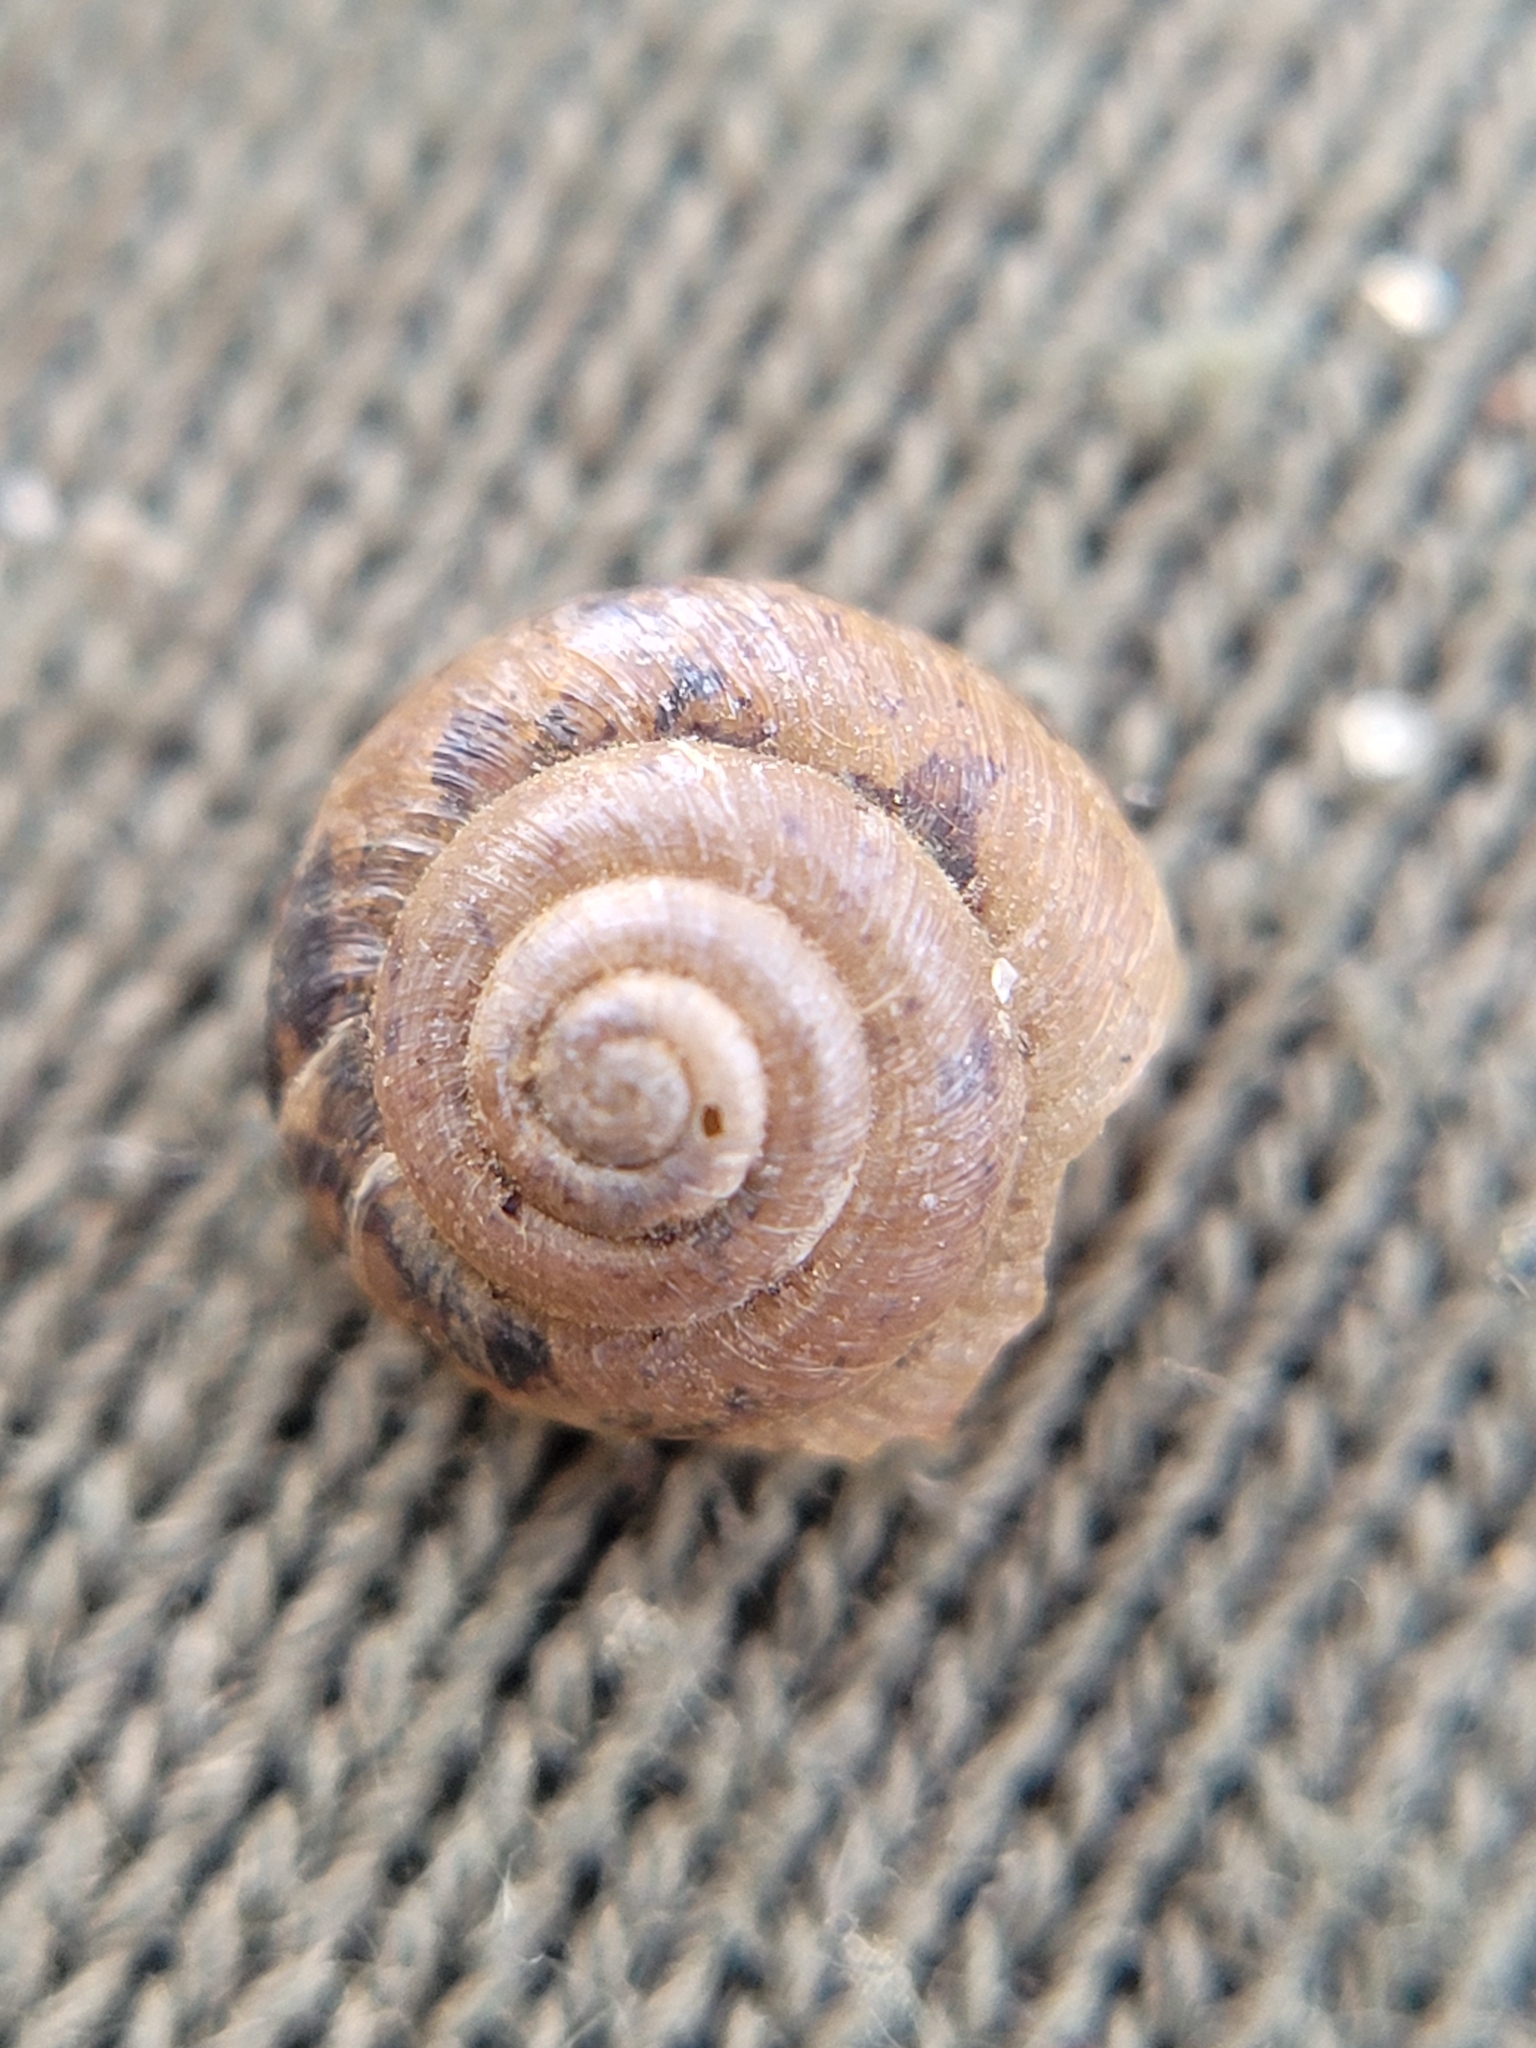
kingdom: Animalia
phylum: Mollusca
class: Gastropoda
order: Stylommatophora
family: Hygromiidae
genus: Trochulus
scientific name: Trochulus hispidus
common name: Hairy snail
